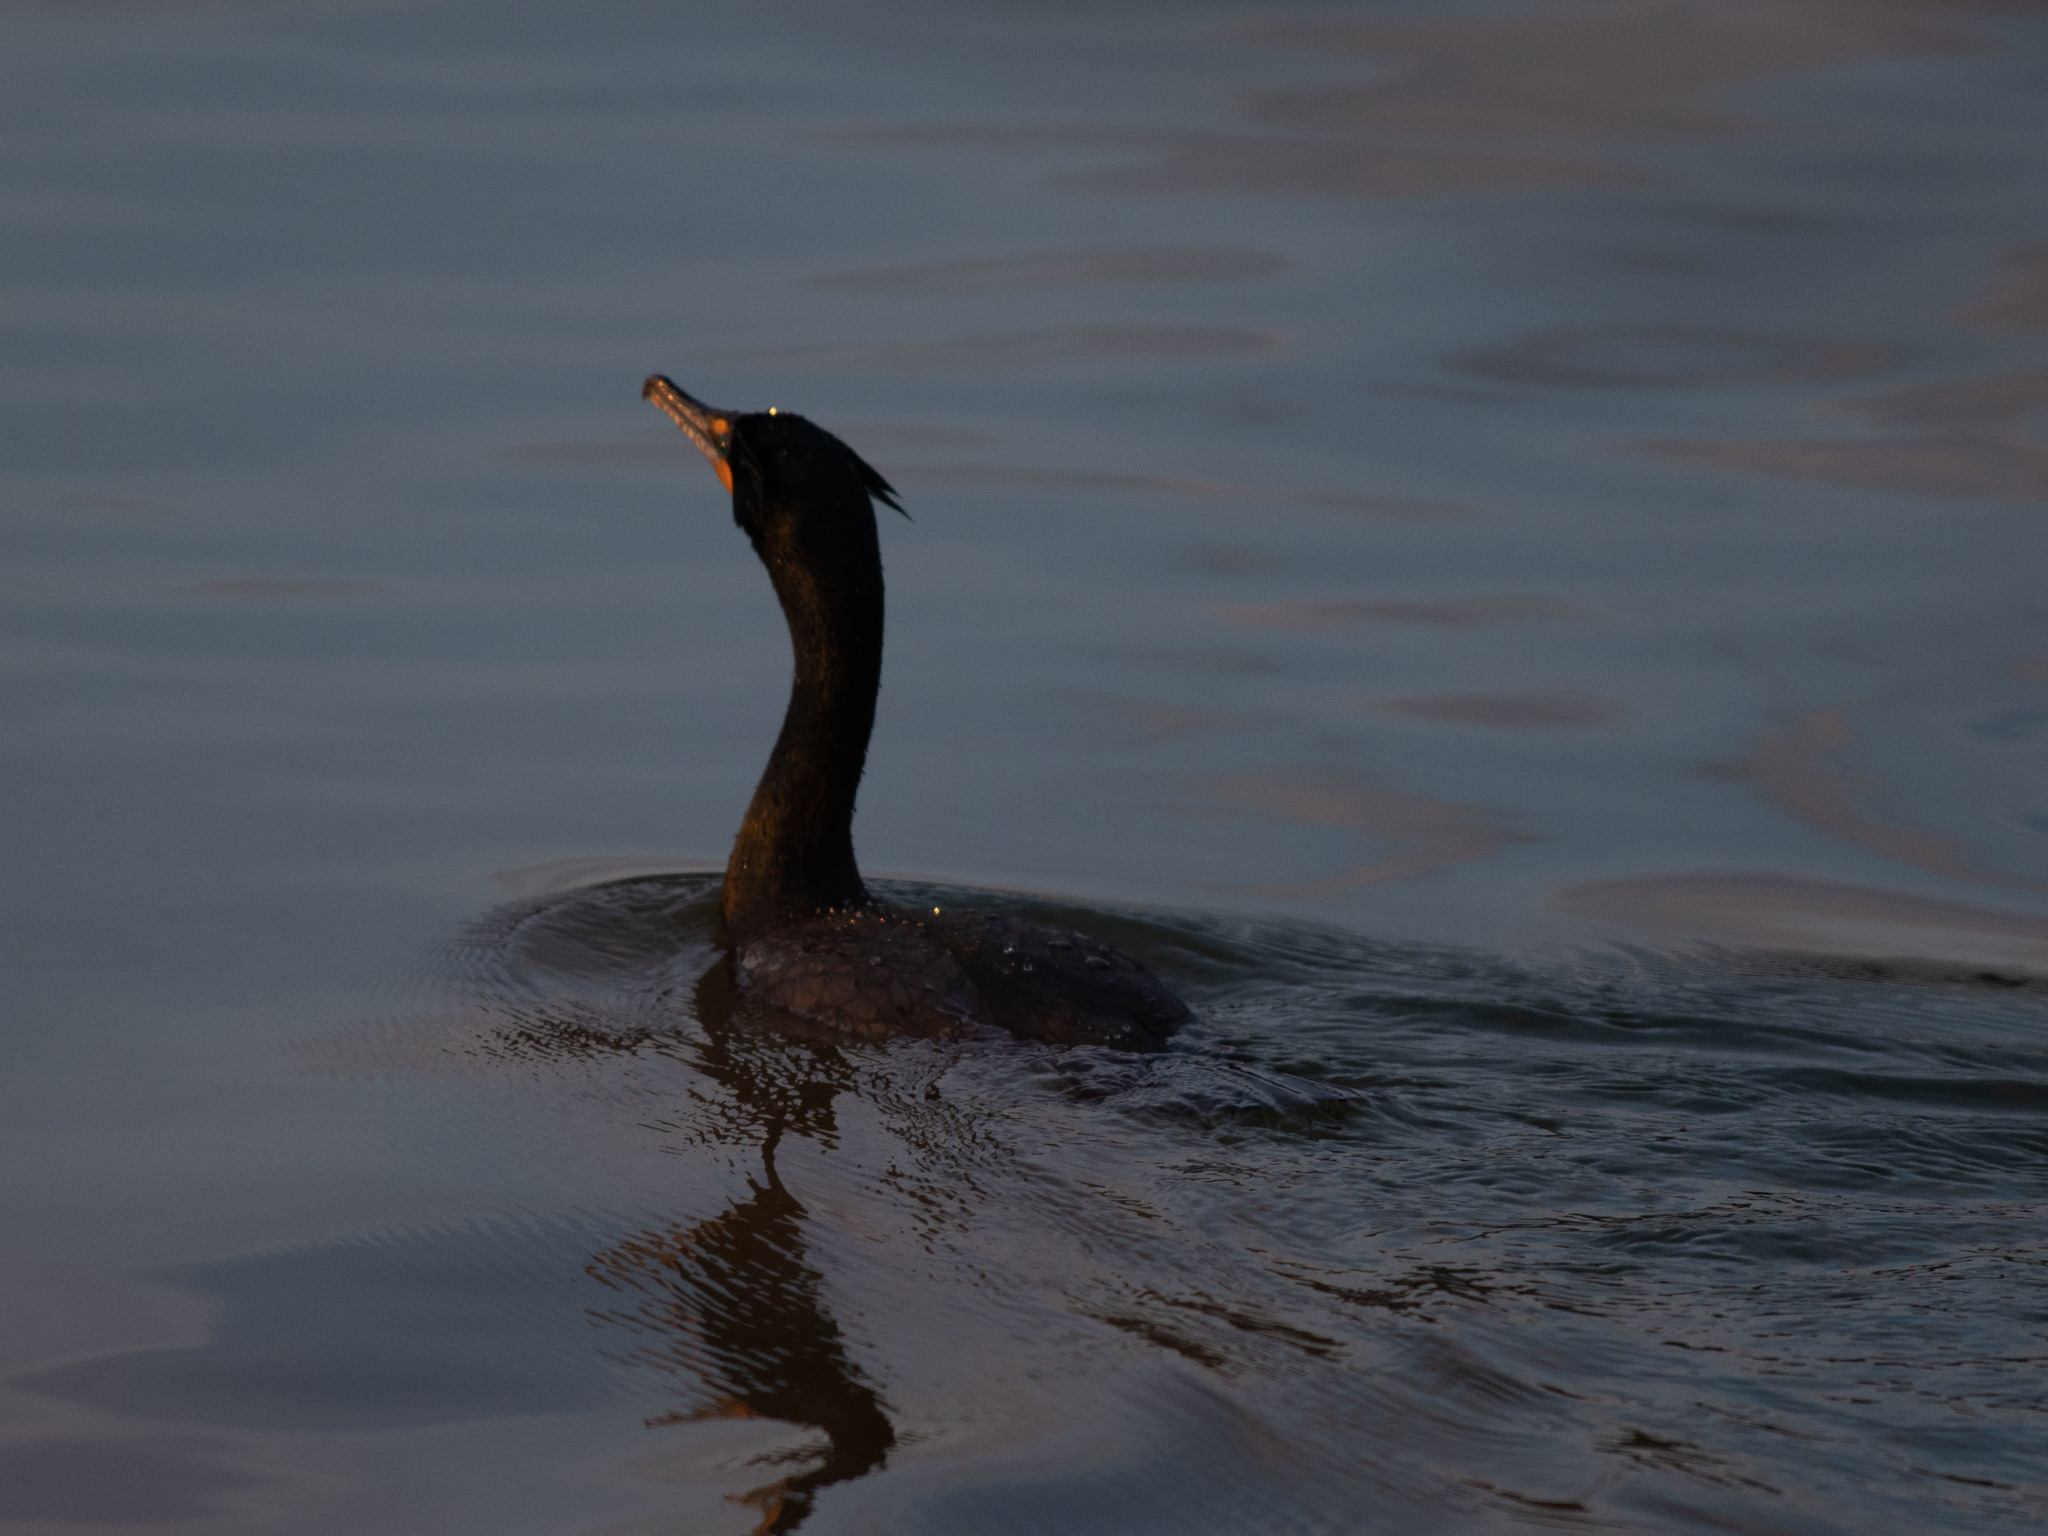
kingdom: Animalia
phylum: Chordata
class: Aves
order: Suliformes
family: Phalacrocoracidae
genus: Phalacrocorax
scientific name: Phalacrocorax auritus
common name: Double-crested cormorant
